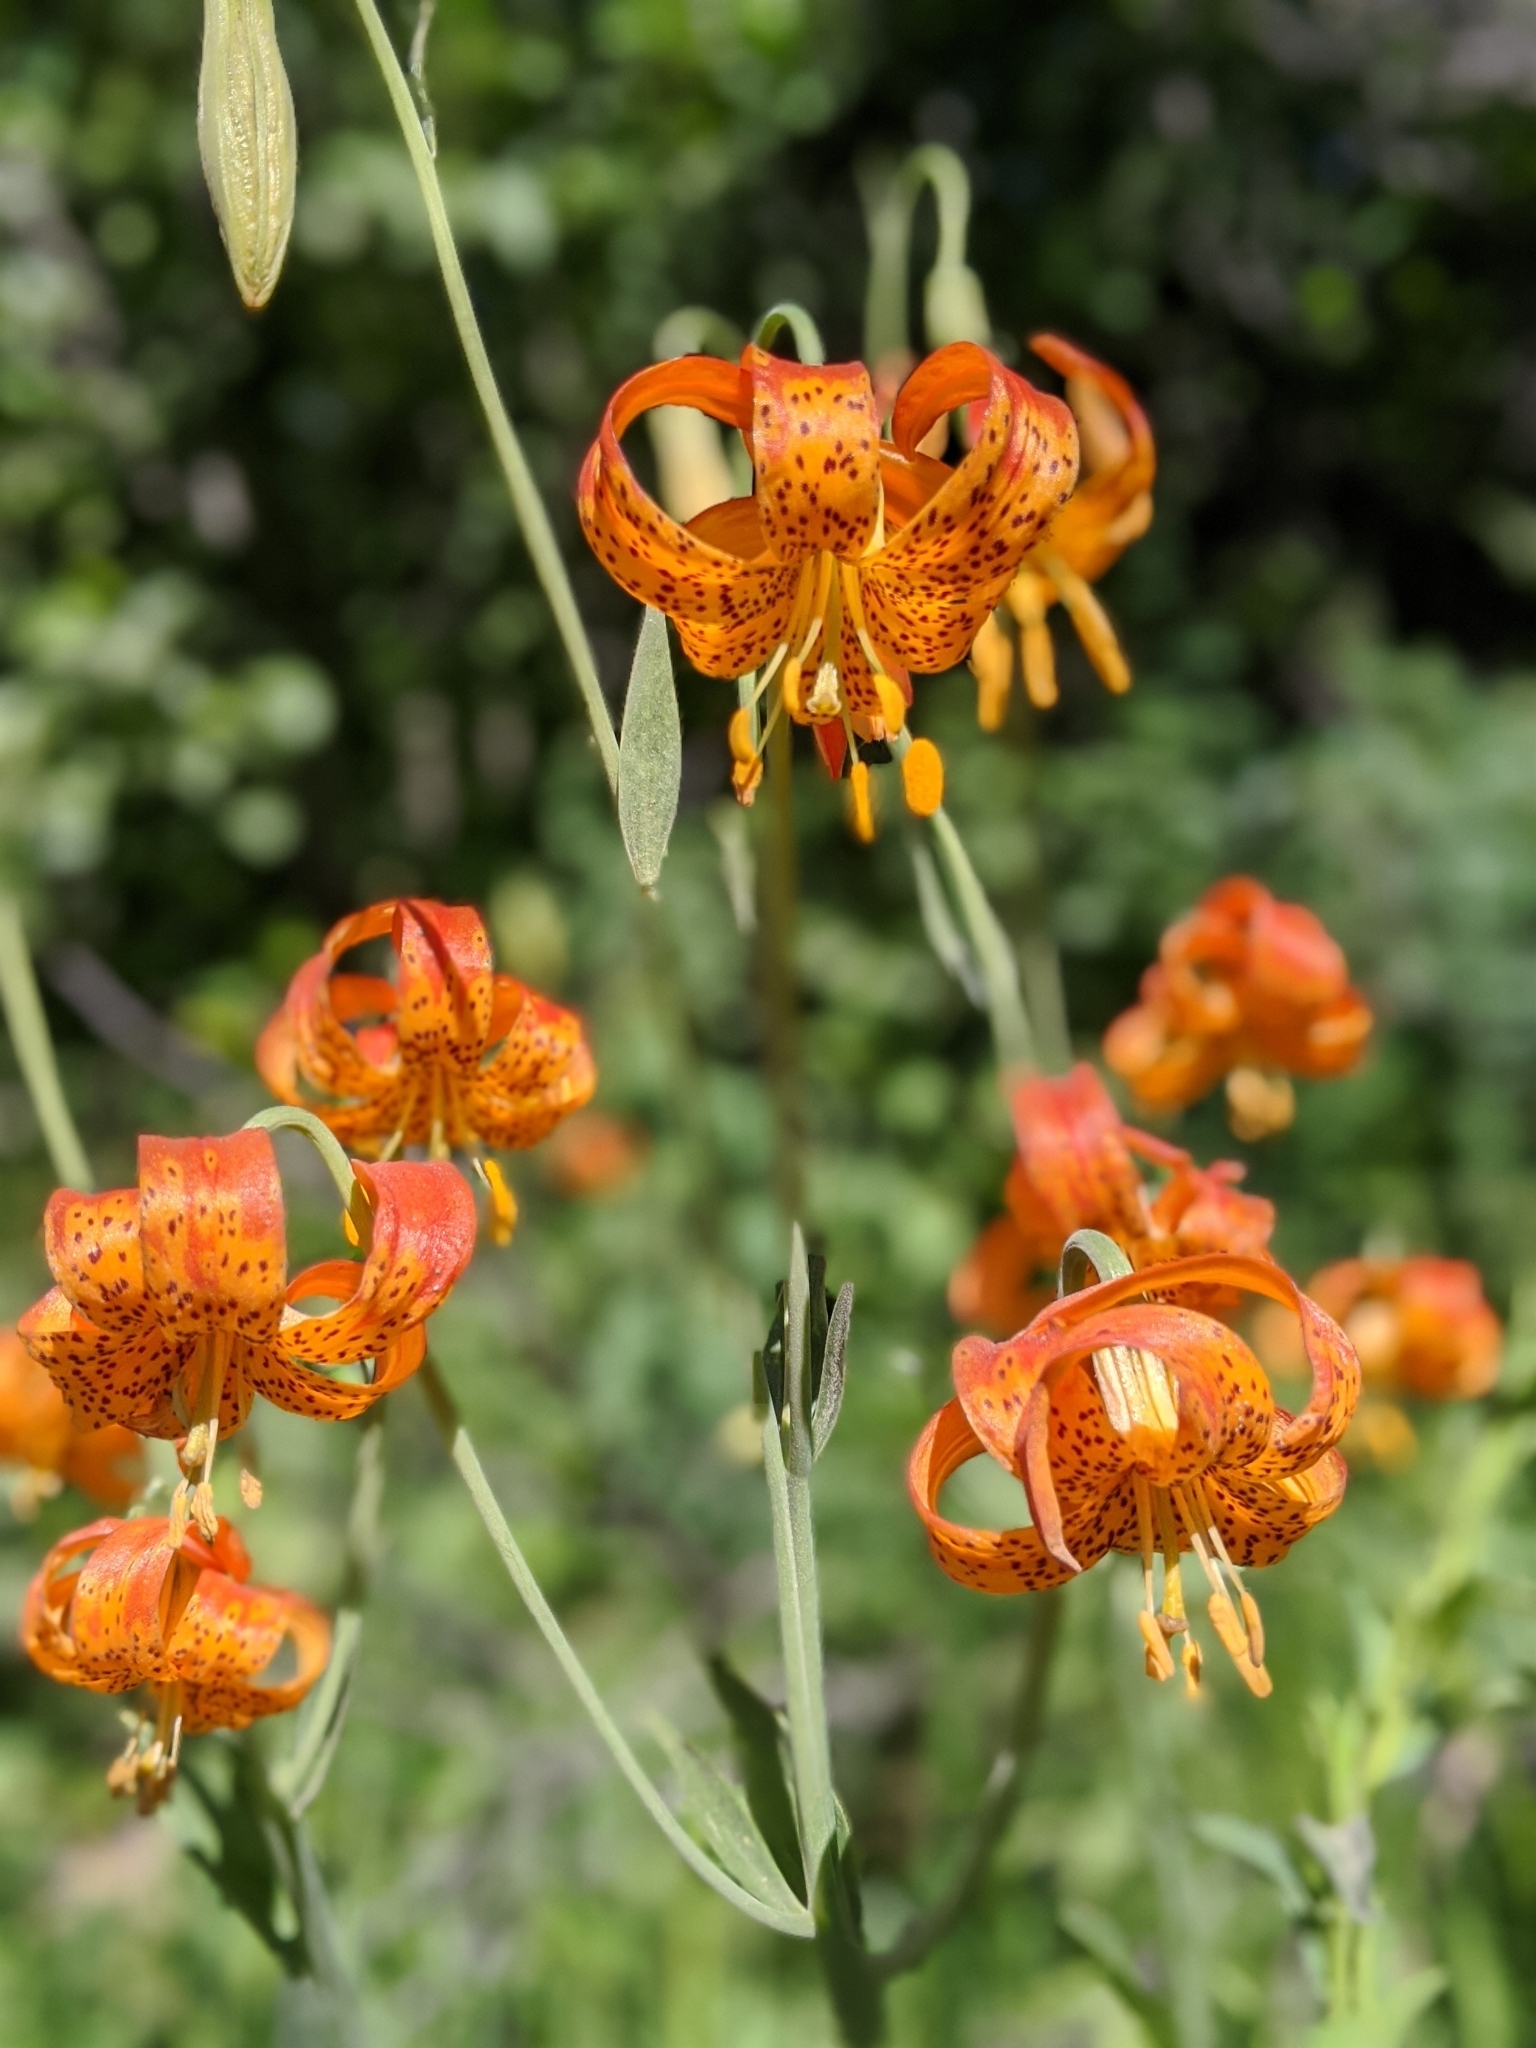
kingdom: Plantae
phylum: Tracheophyta
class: Liliopsida
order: Liliales
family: Liliaceae
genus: Lilium
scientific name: Lilium pardalinum
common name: Panther lily
